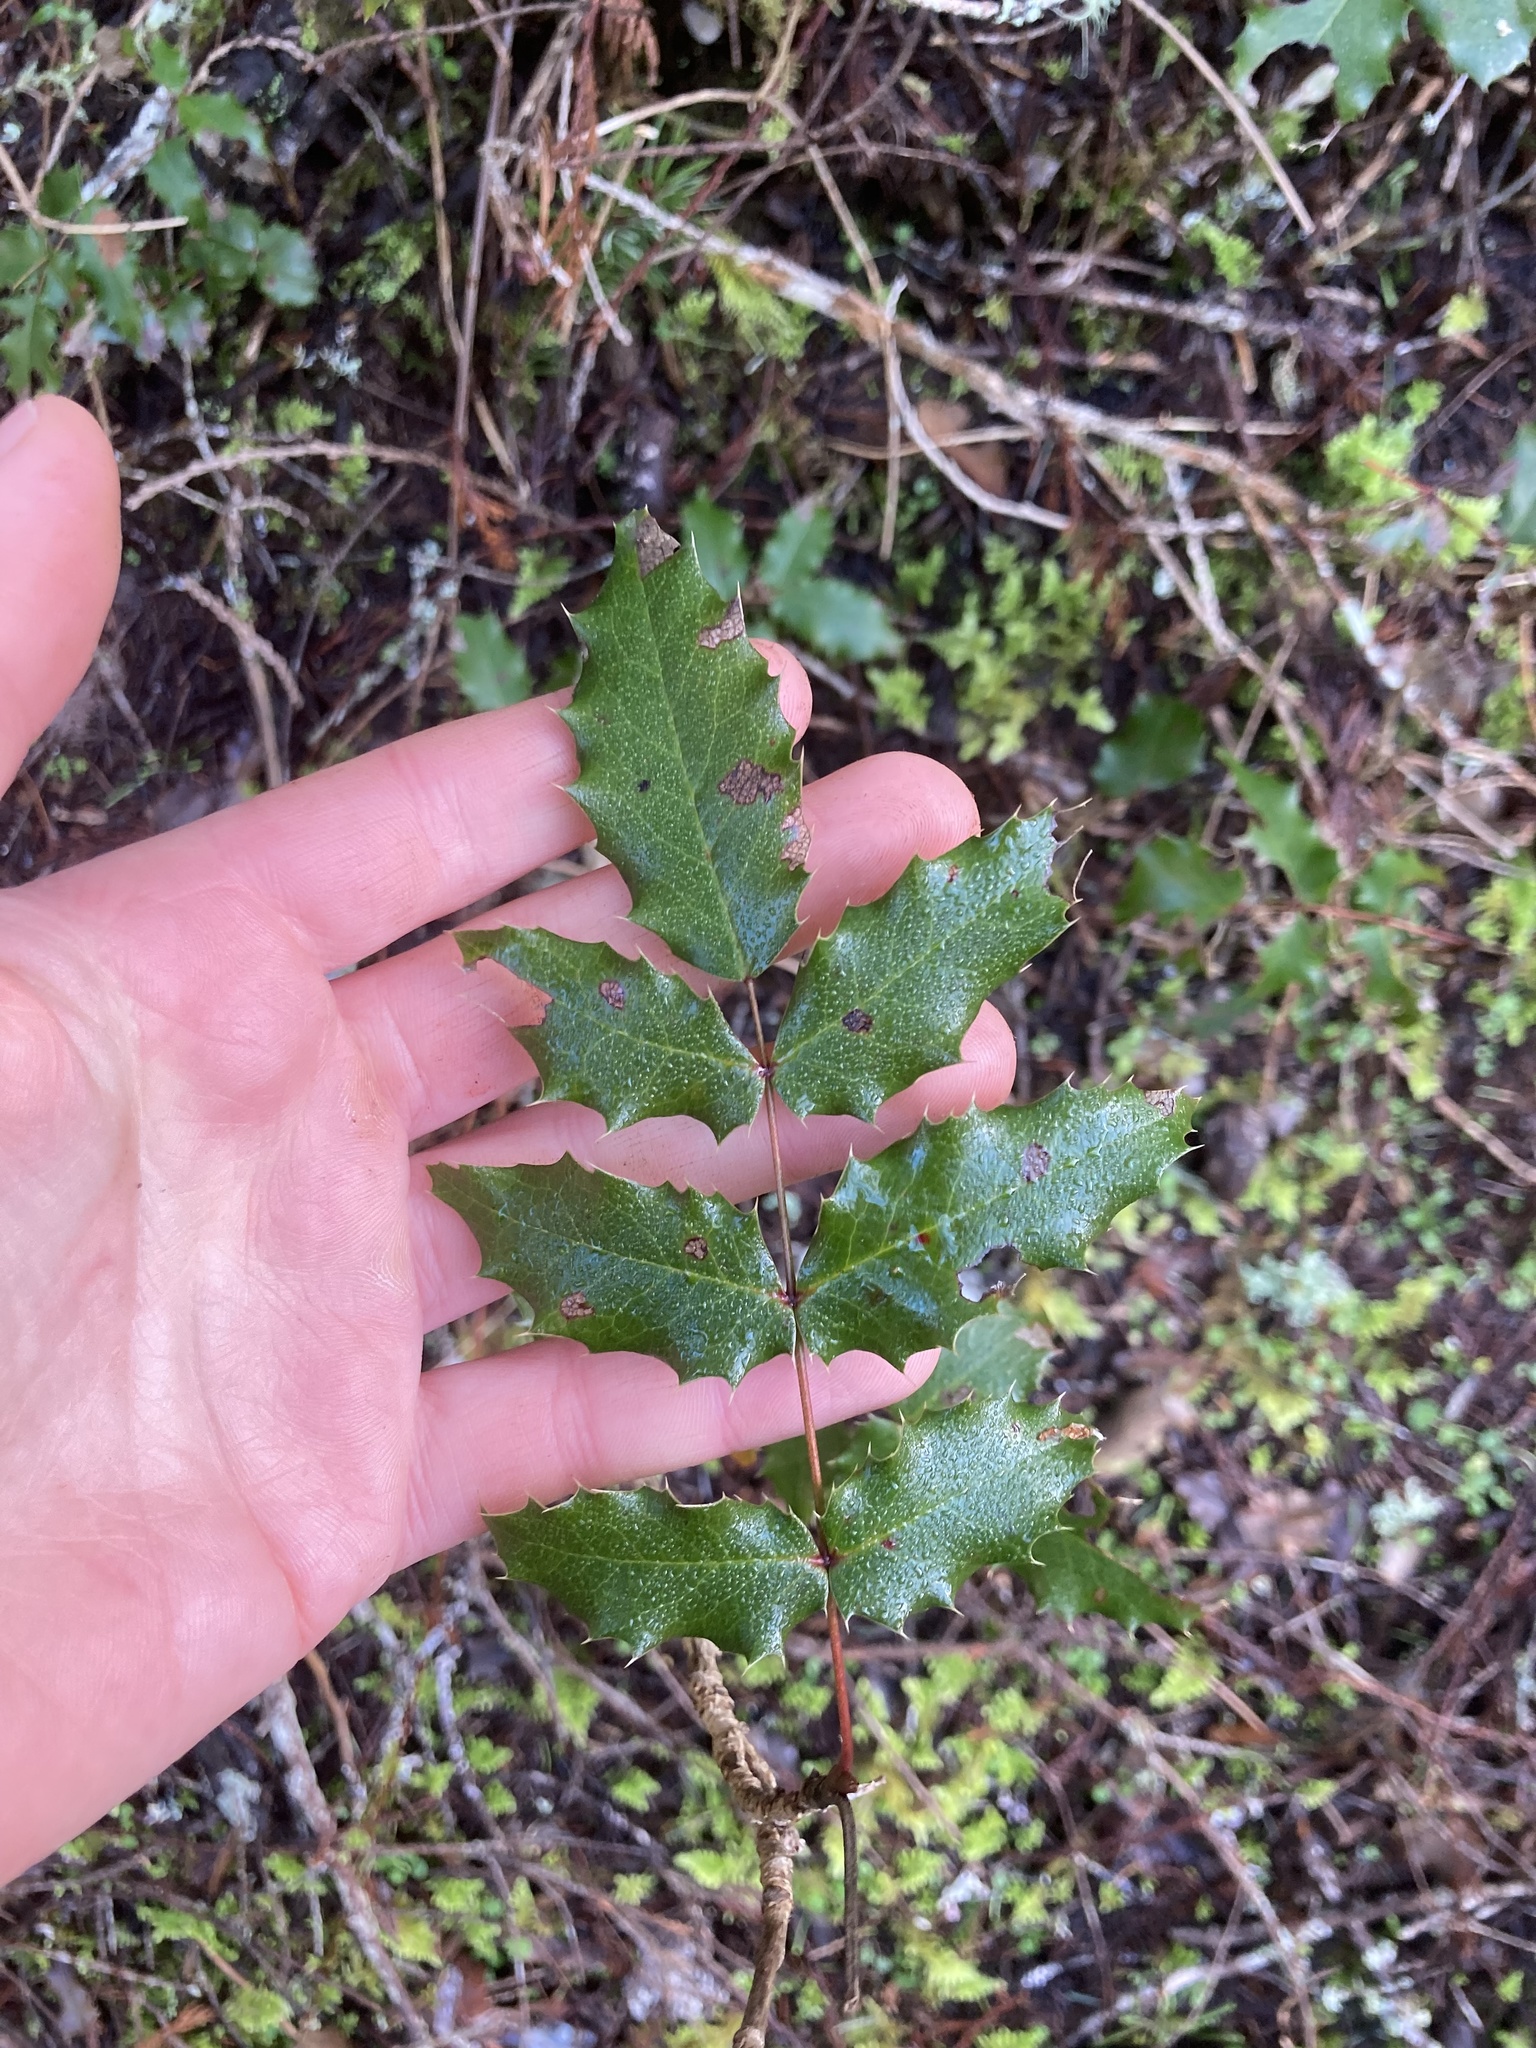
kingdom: Plantae
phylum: Tracheophyta
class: Magnoliopsida
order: Ranunculales
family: Berberidaceae
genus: Mahonia
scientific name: Mahonia aquifolium
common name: Oregon-grape
